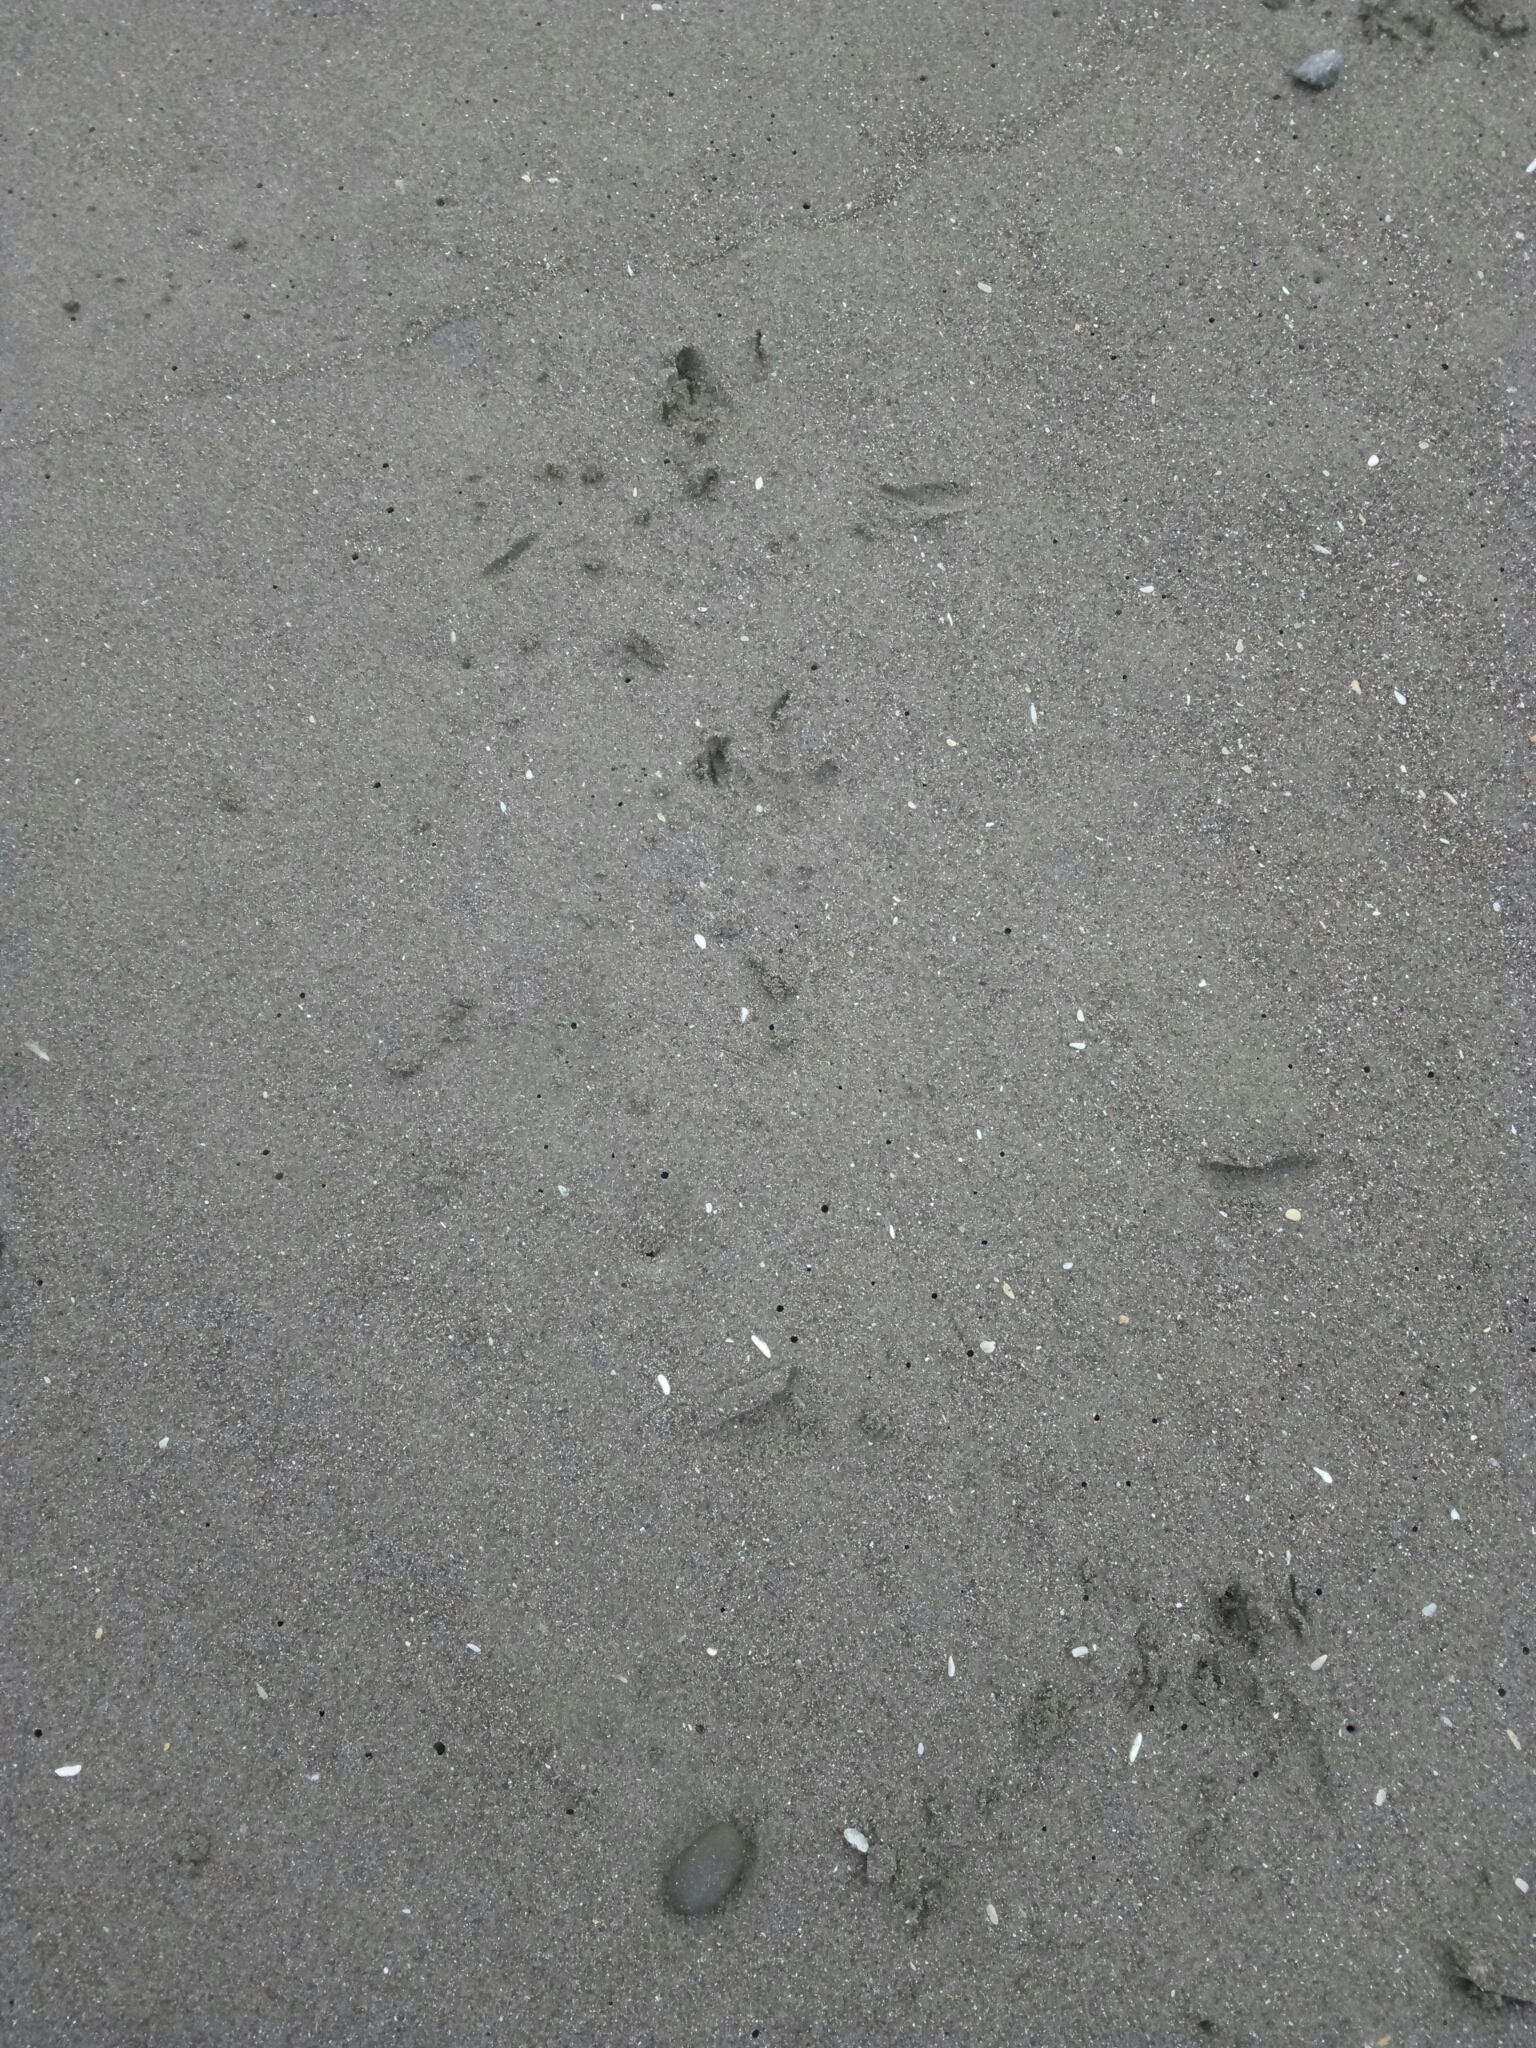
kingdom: Animalia
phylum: Chordata
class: Aves
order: Sphenisciformes
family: Spheniscidae
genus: Eudyptula
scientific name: Eudyptula minor
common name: Little penguin
